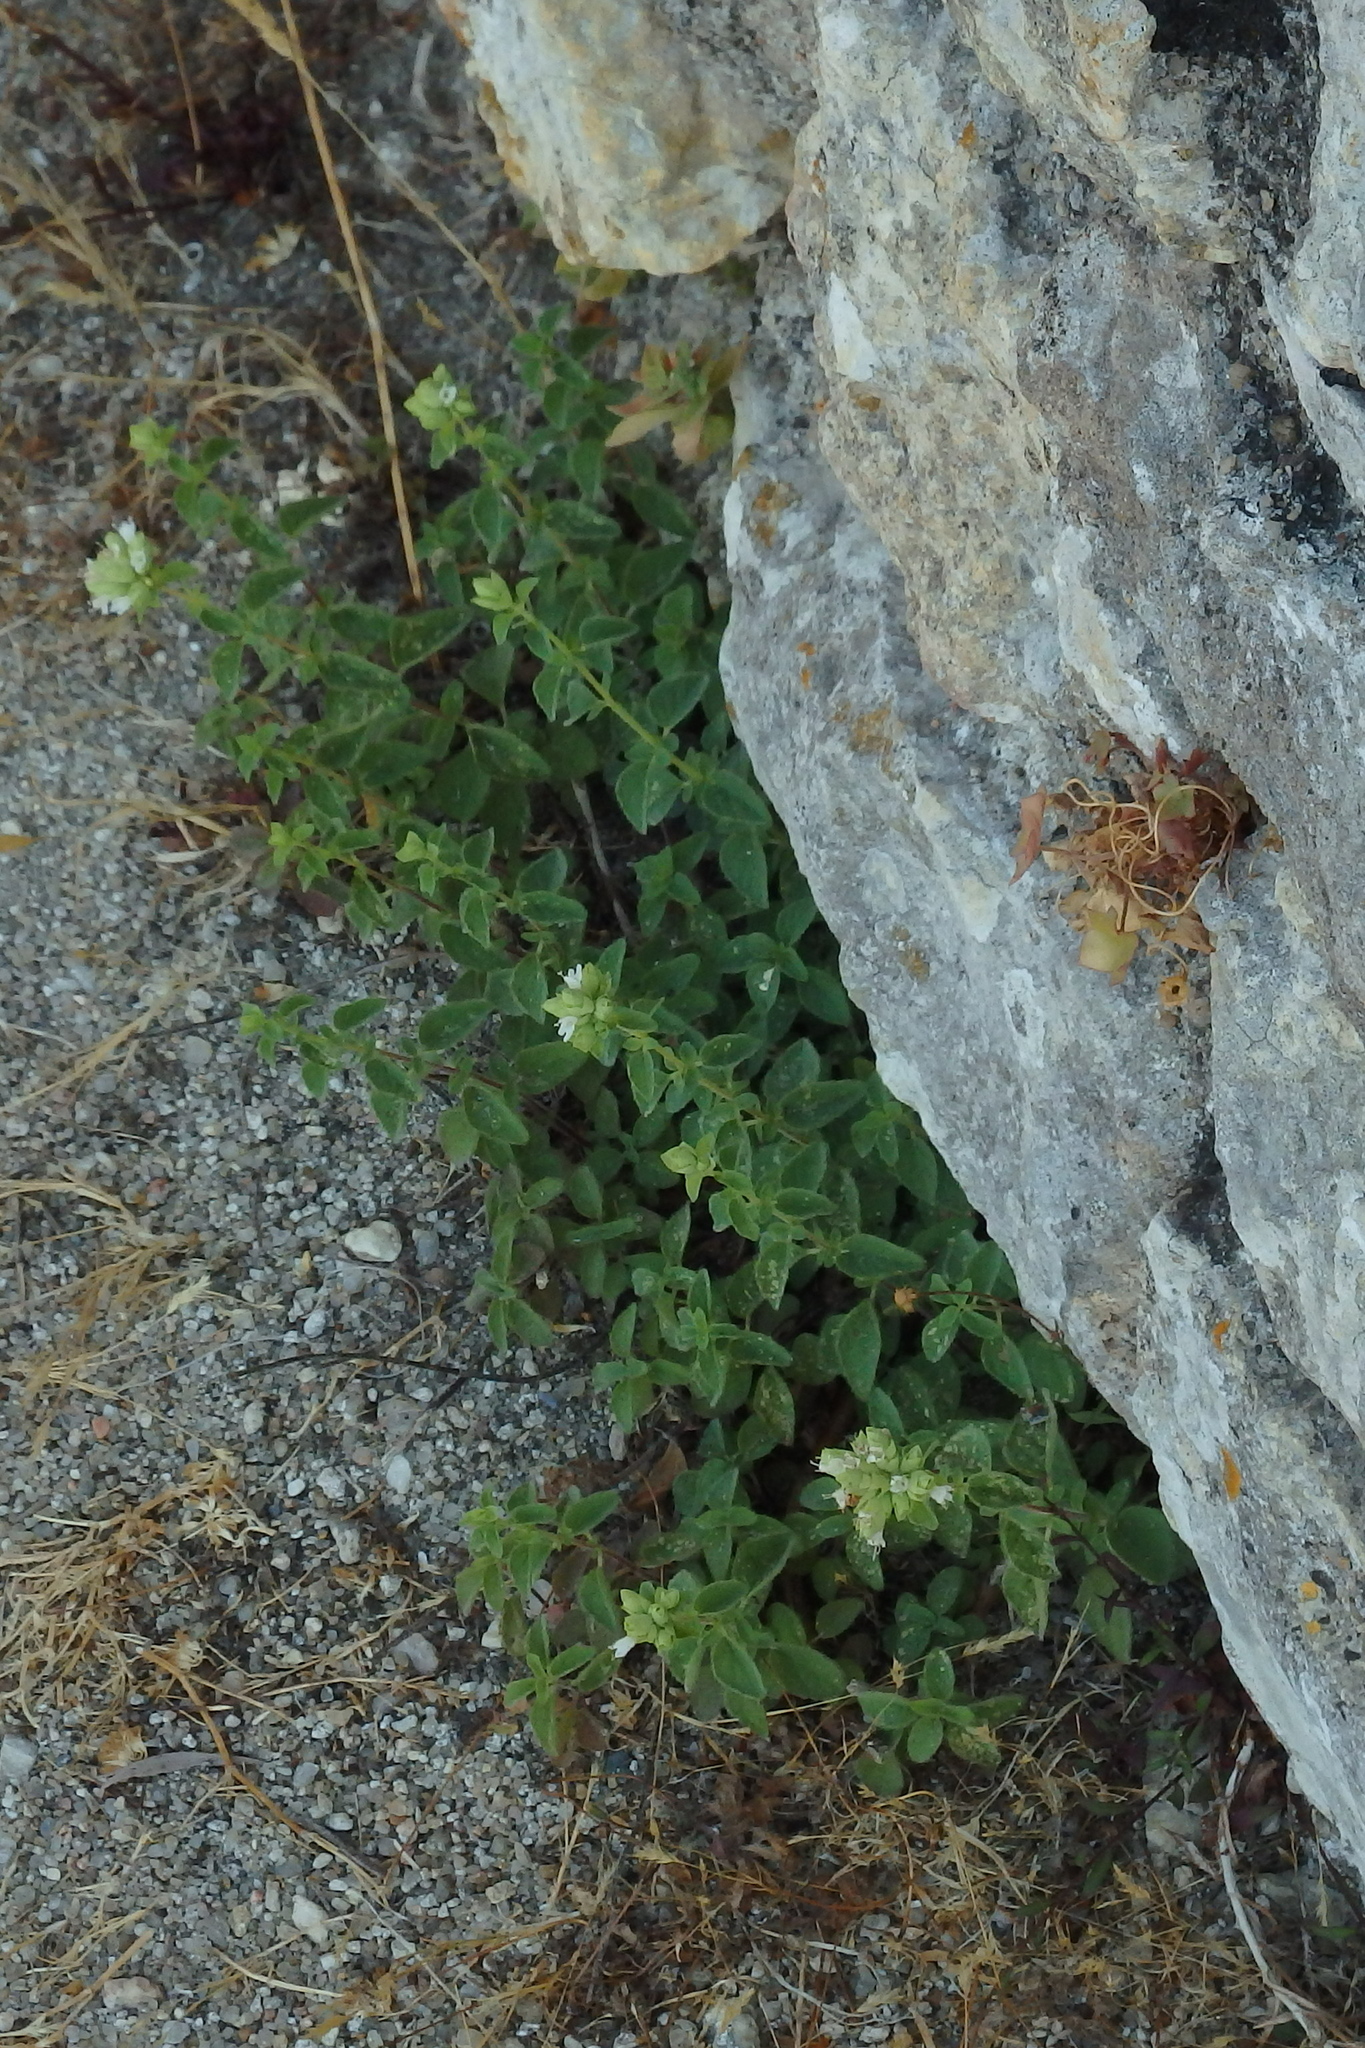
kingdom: Plantae
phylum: Tracheophyta
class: Magnoliopsida
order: Lamiales
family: Lamiaceae
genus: Origanum
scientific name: Origanum vulgare
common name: Wild marjoram
